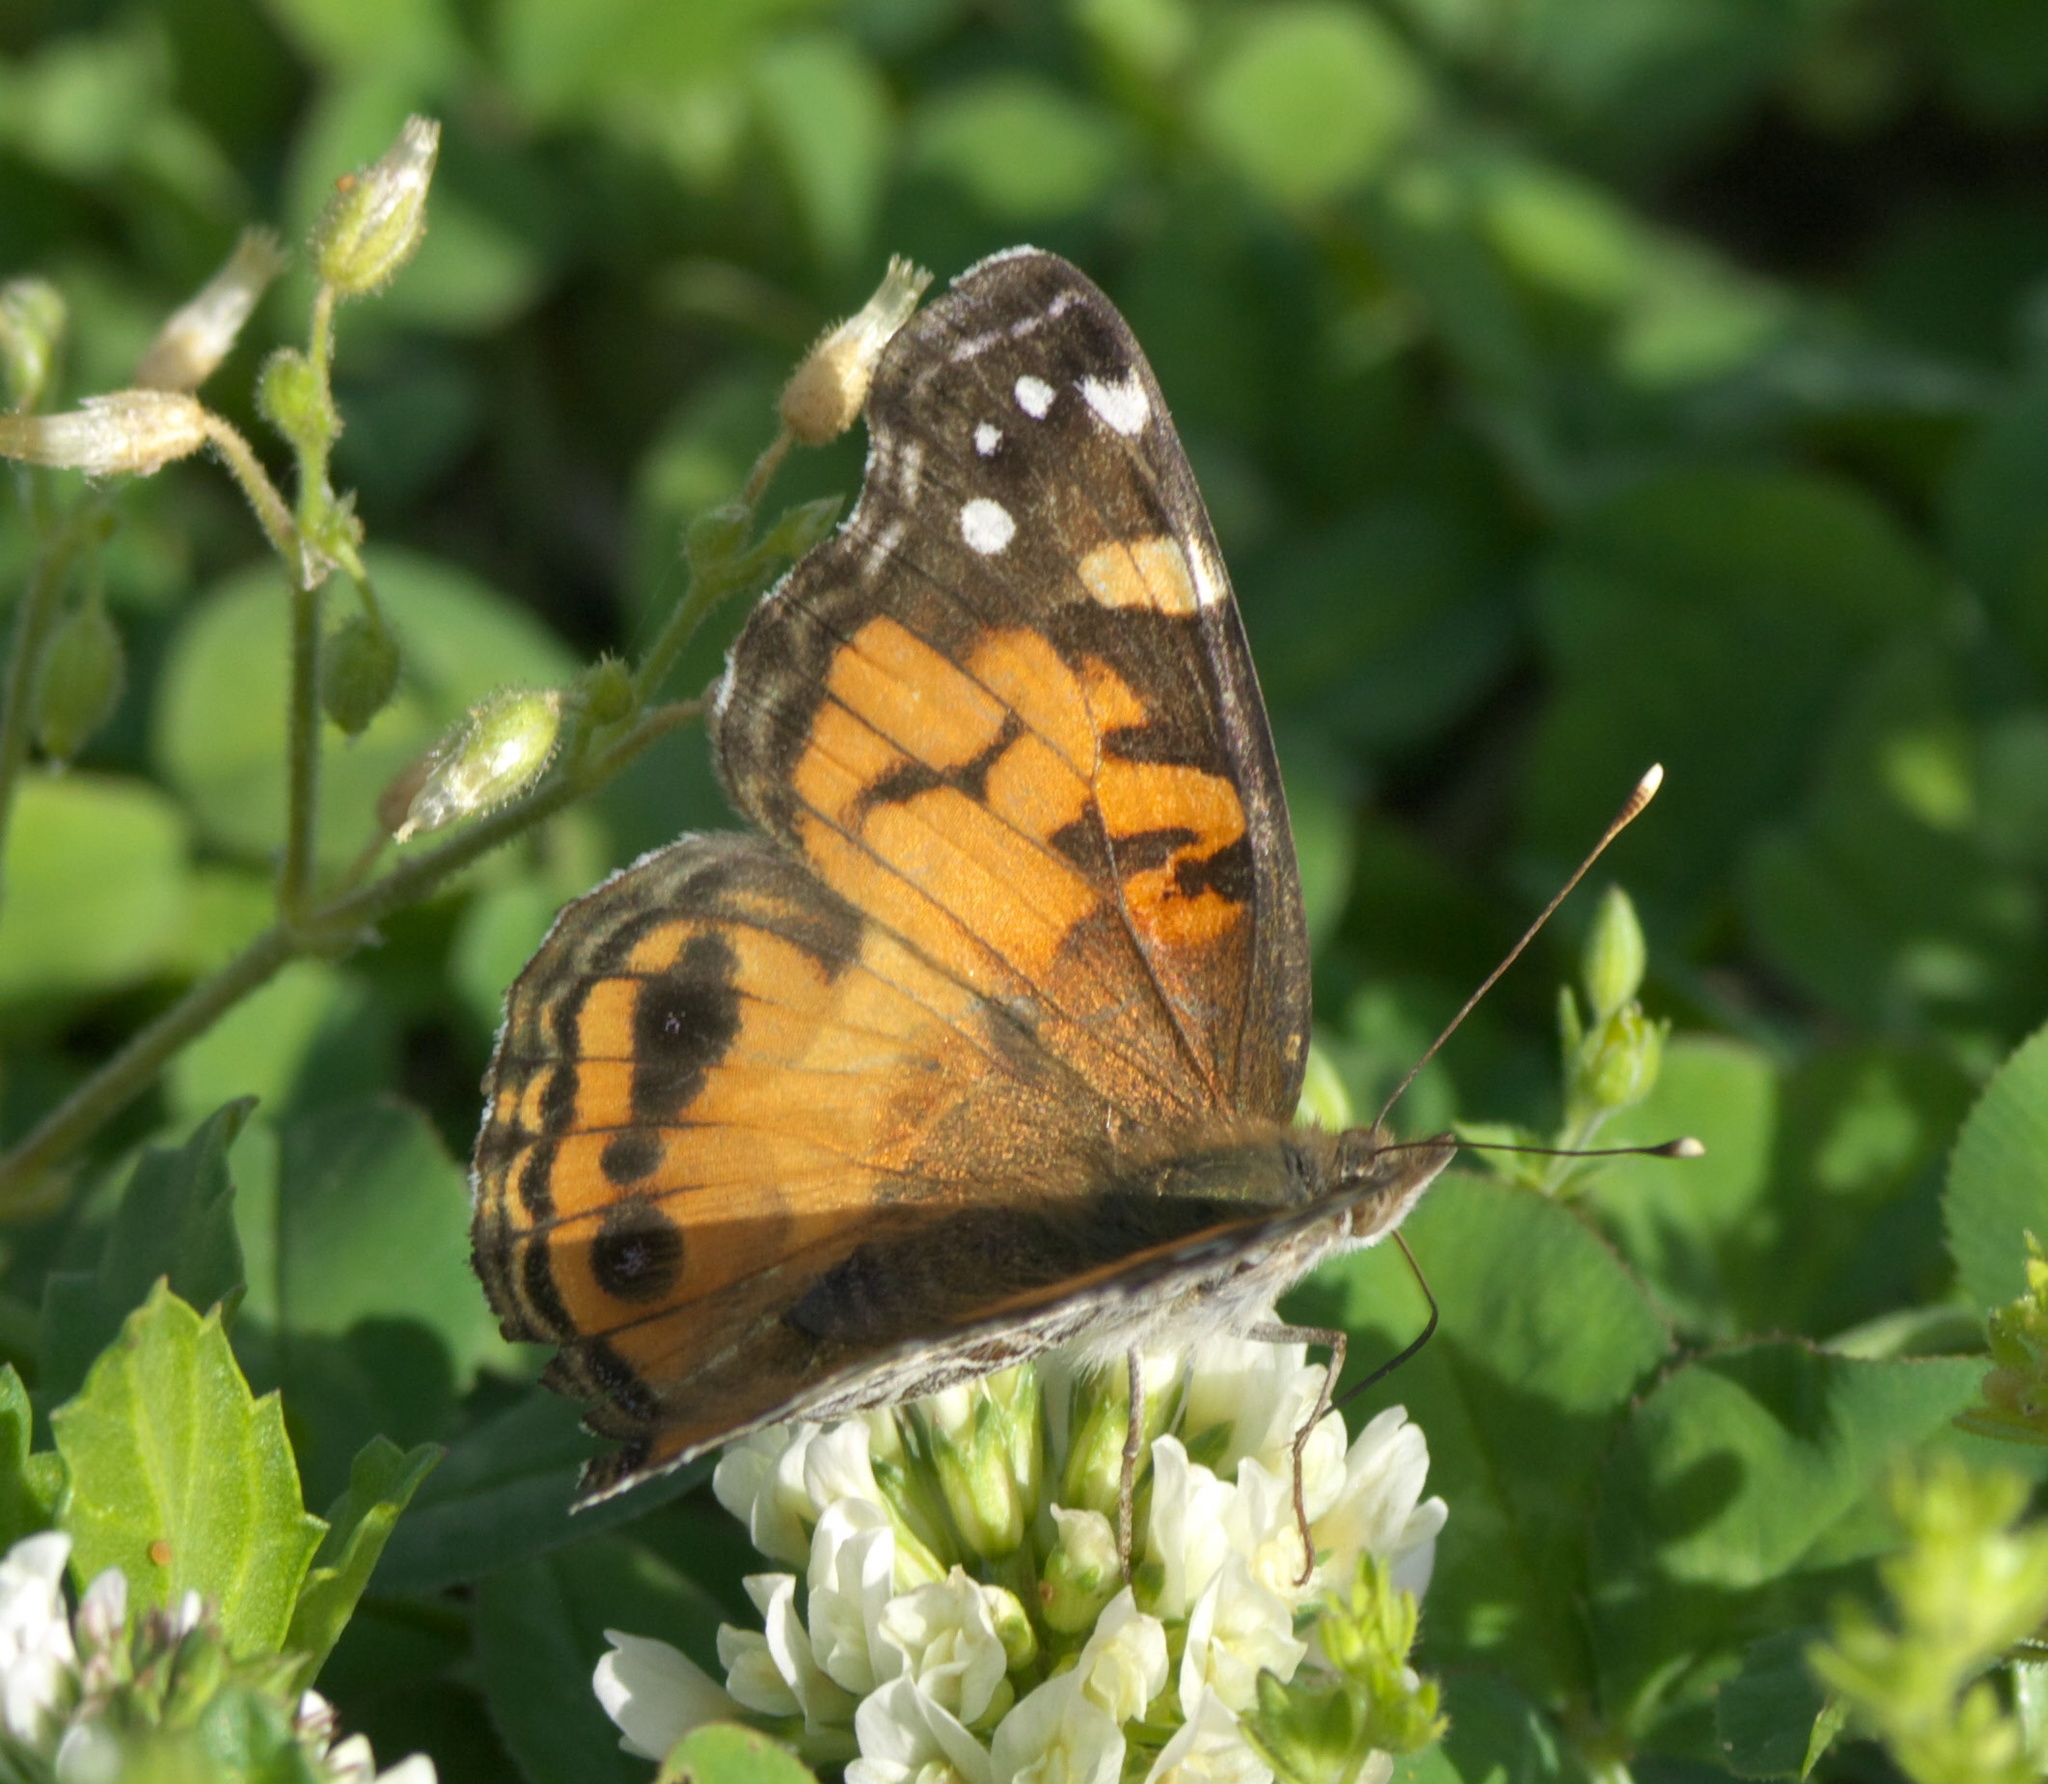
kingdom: Animalia
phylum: Arthropoda
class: Insecta
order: Lepidoptera
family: Nymphalidae
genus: Vanessa
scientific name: Vanessa virginiensis
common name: American lady
